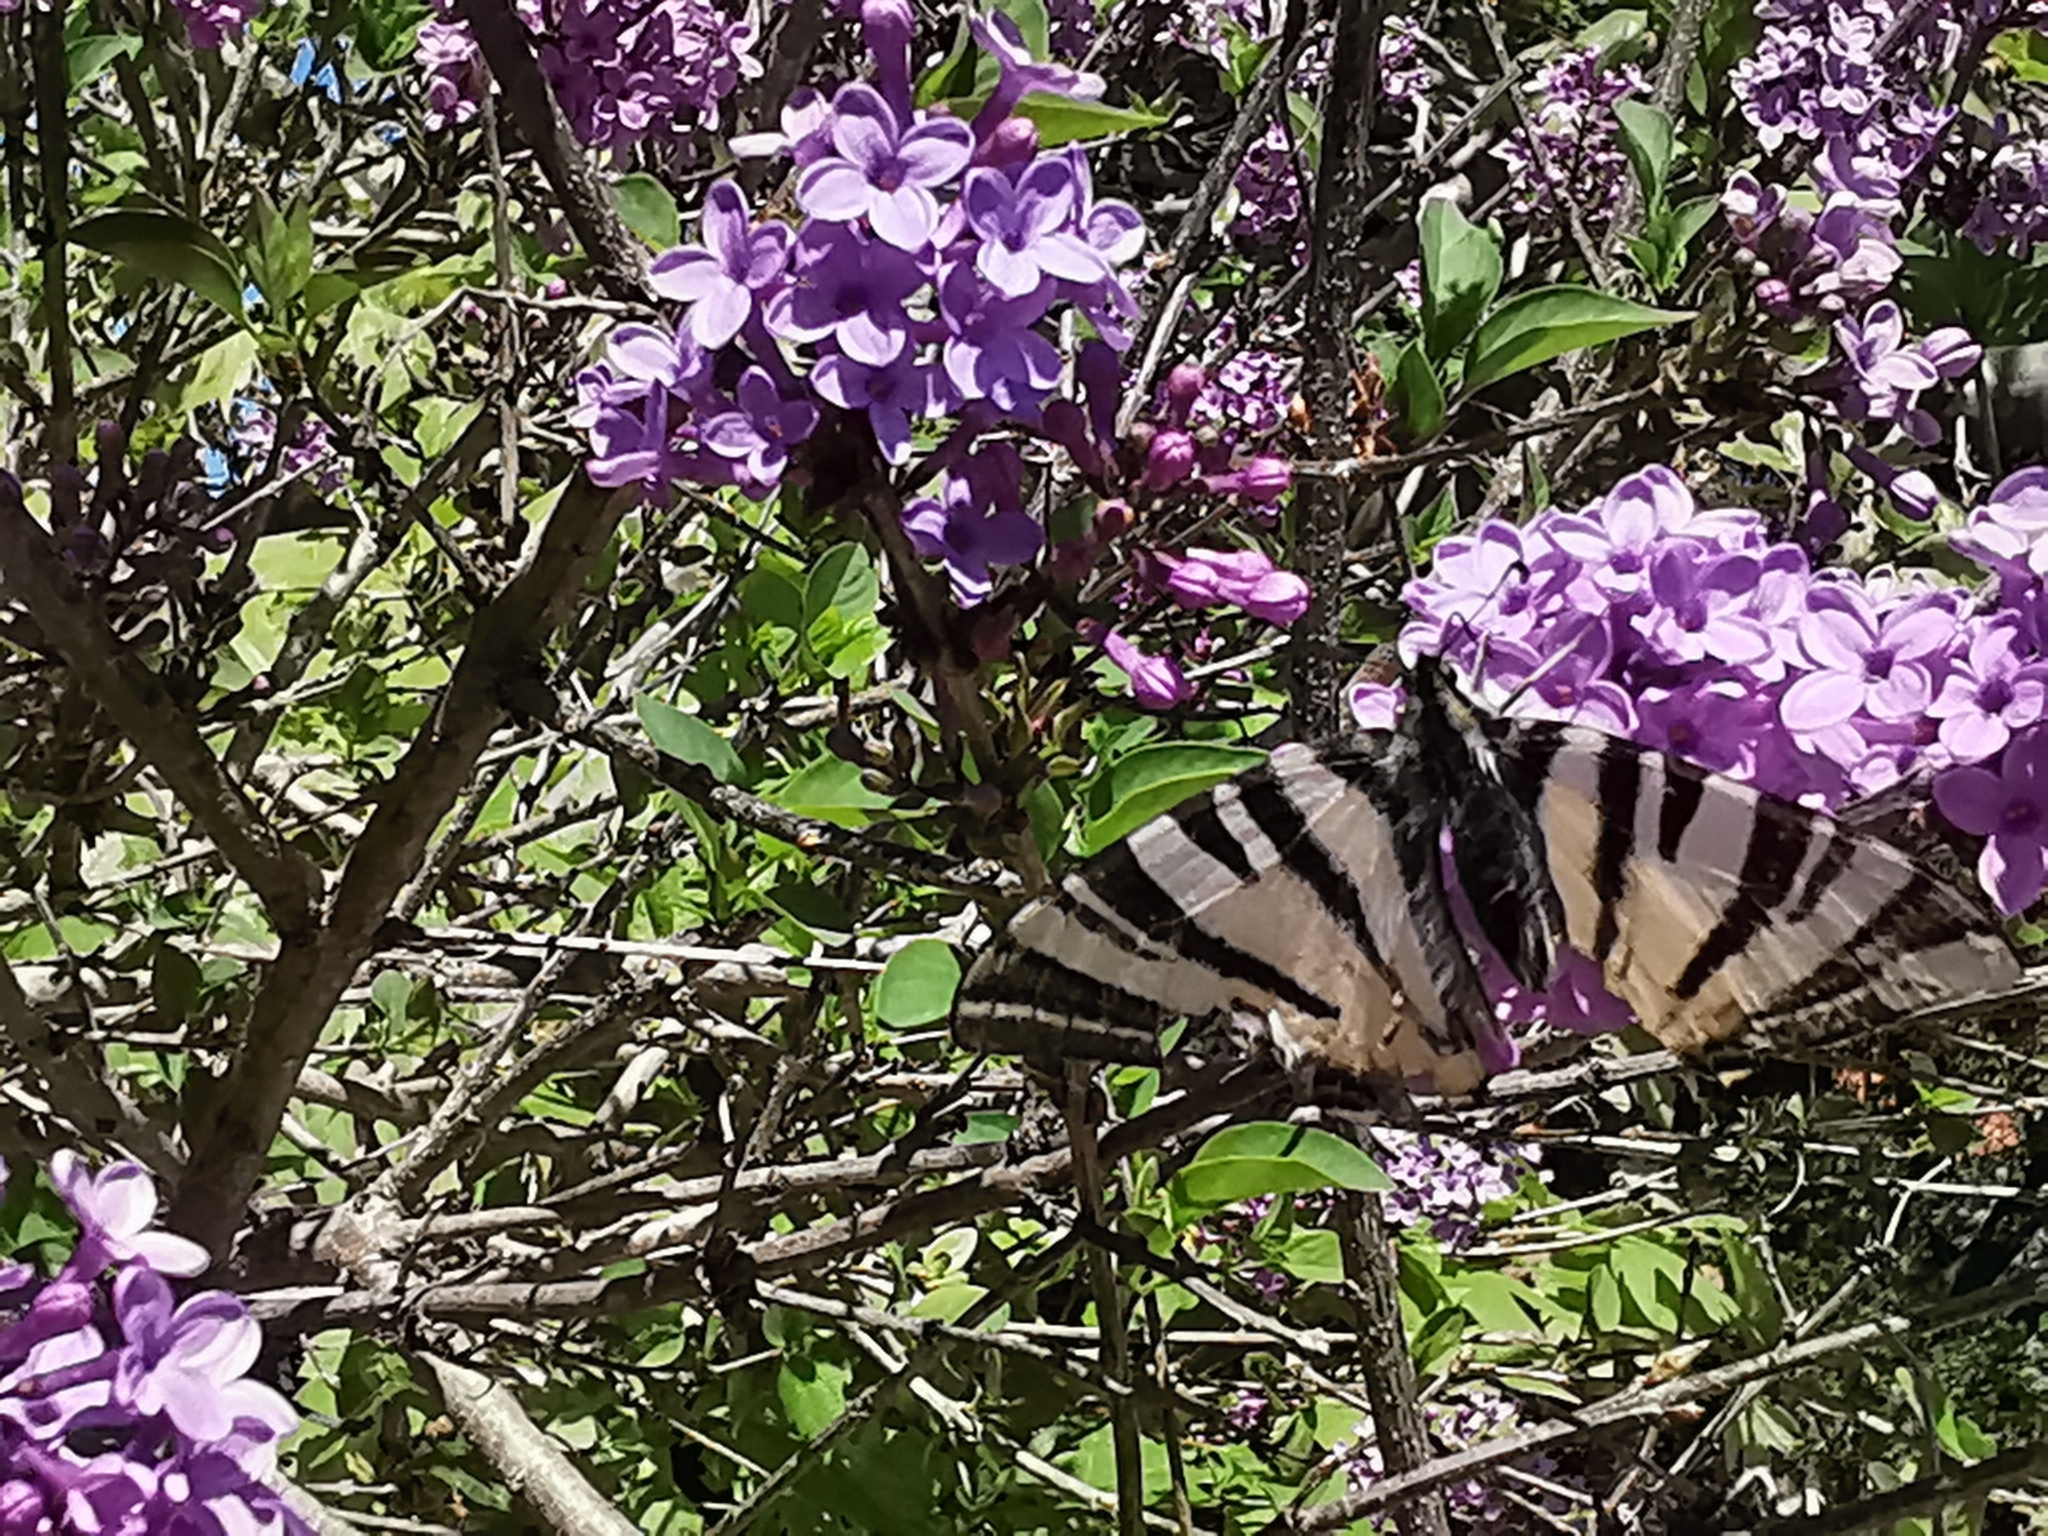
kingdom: Animalia
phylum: Arthropoda
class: Insecta
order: Lepidoptera
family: Papilionidae
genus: Iphiclides
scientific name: Iphiclides podalirius
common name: Scarce swallowtail
